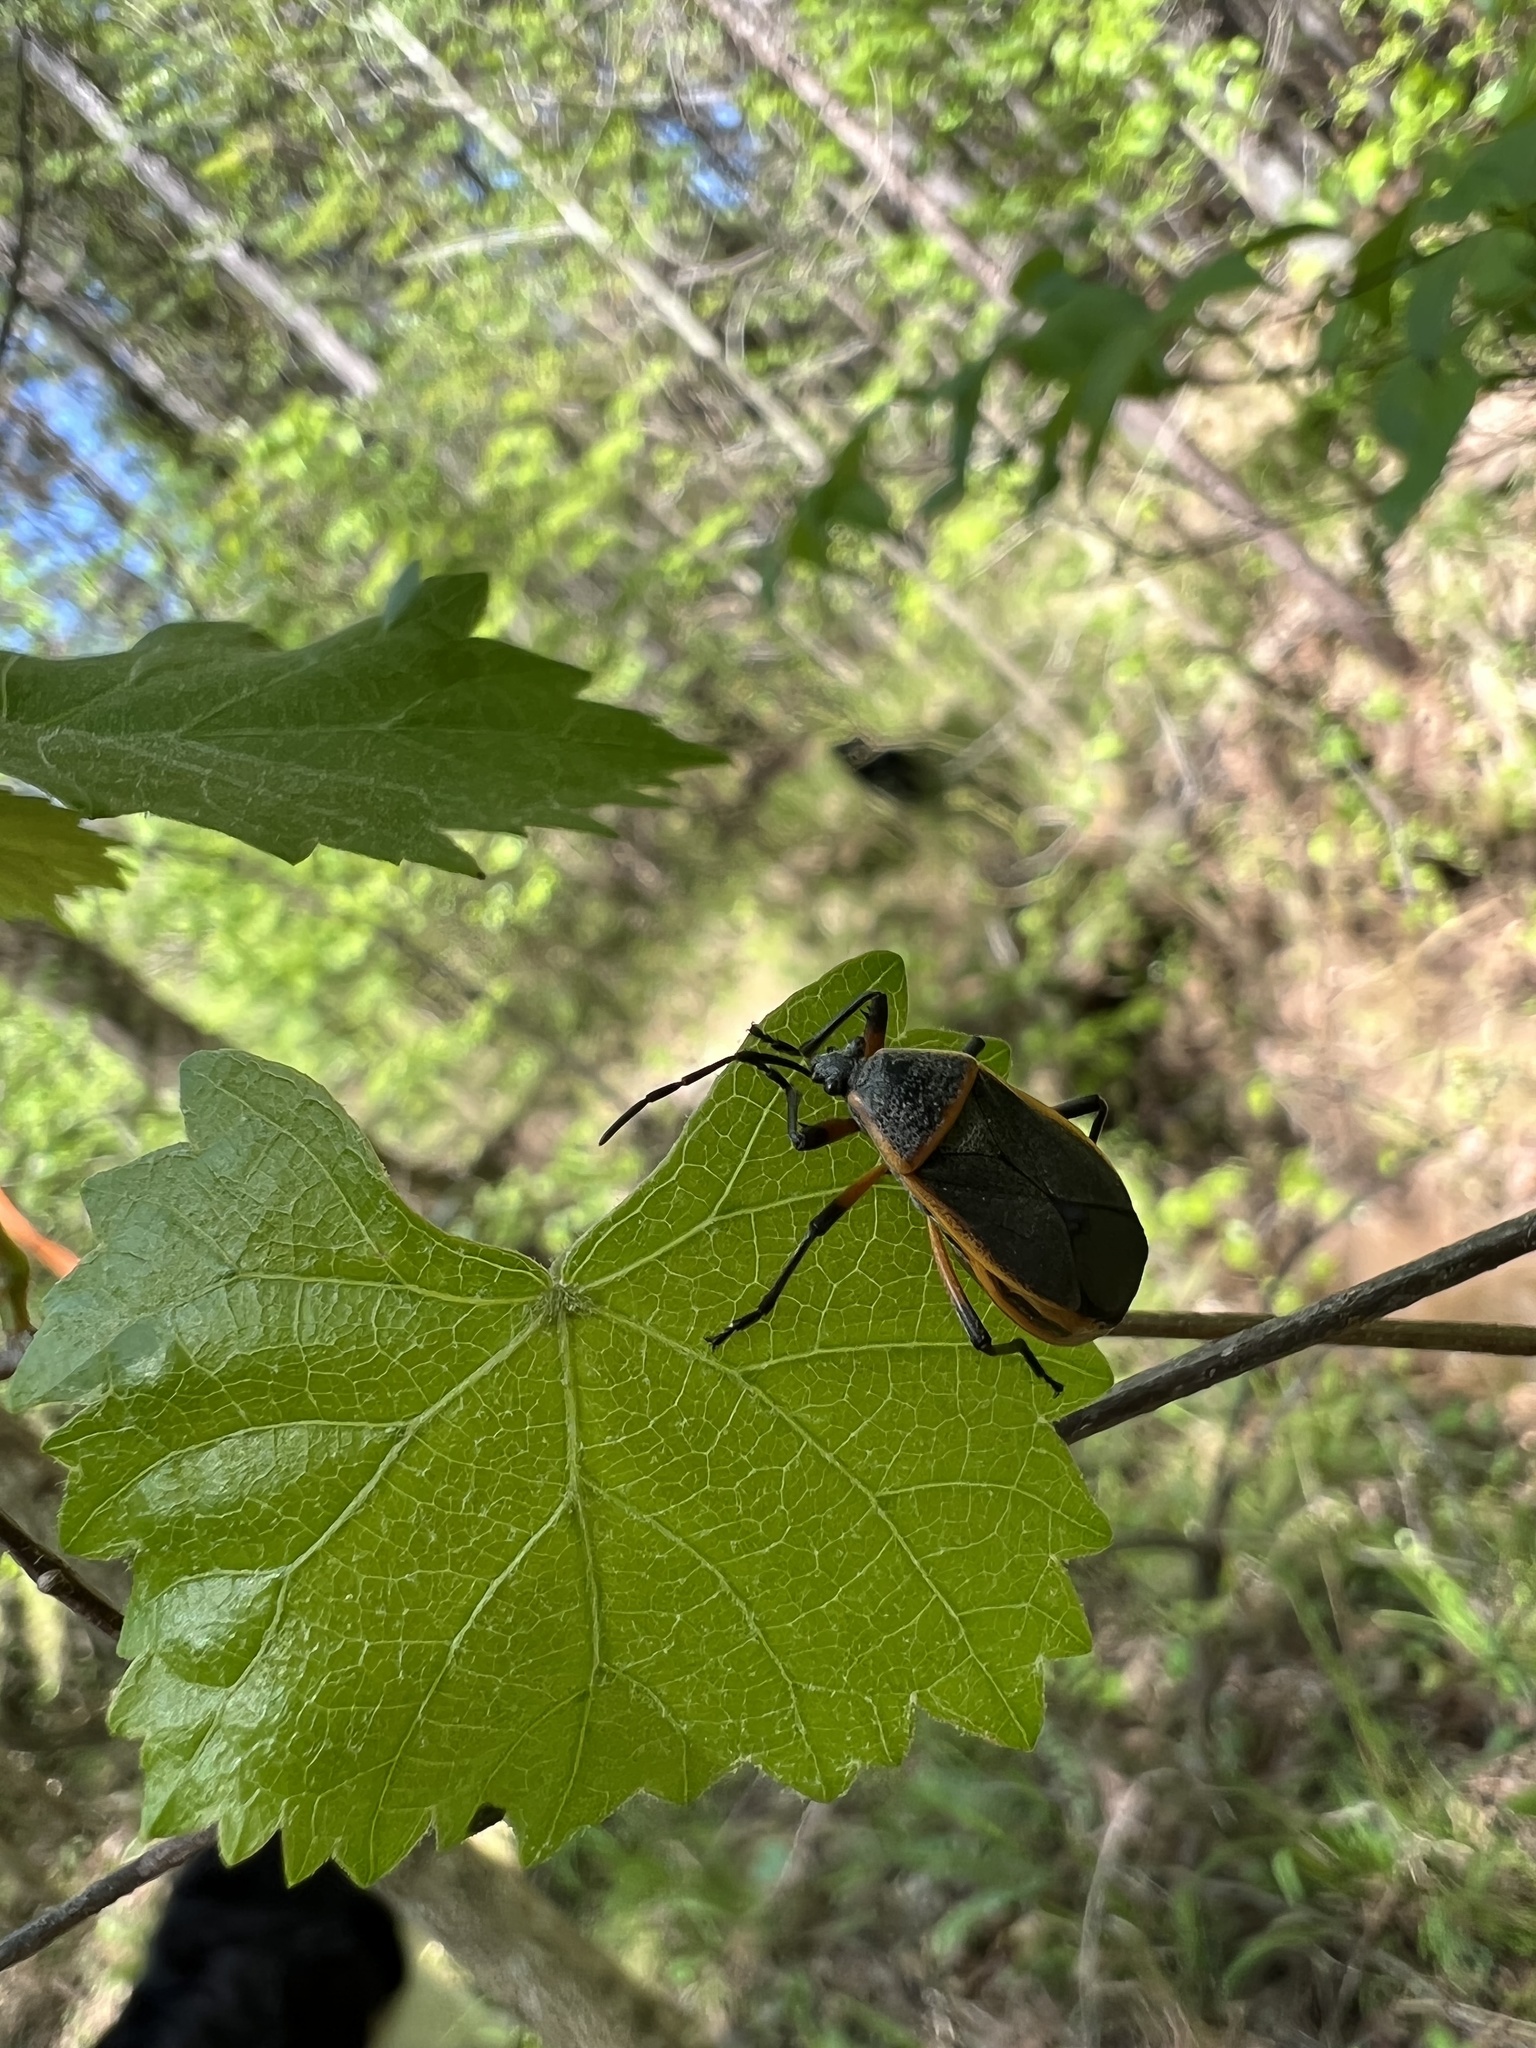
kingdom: Animalia
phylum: Arthropoda
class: Insecta
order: Hemiptera
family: Largidae
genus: Largus
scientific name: Largus succinctus
